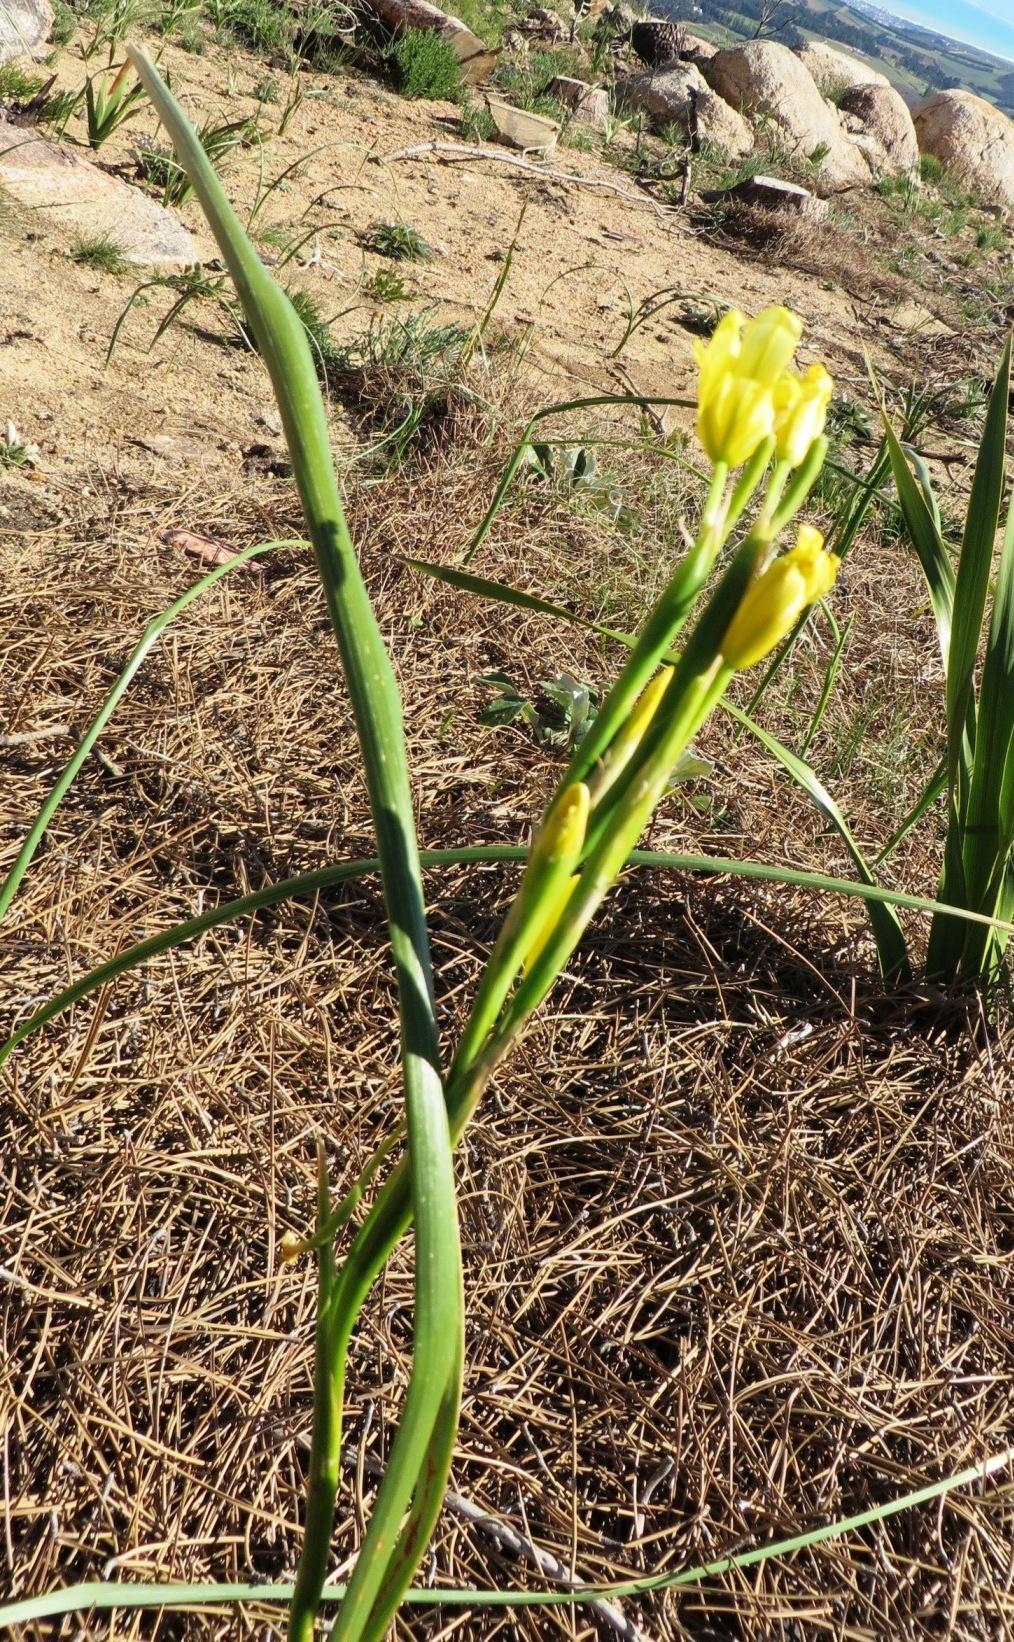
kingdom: Plantae
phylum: Tracheophyta
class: Liliopsida
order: Asparagales
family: Iridaceae
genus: Moraea
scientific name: Moraea ochroleuca
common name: Red tulp
